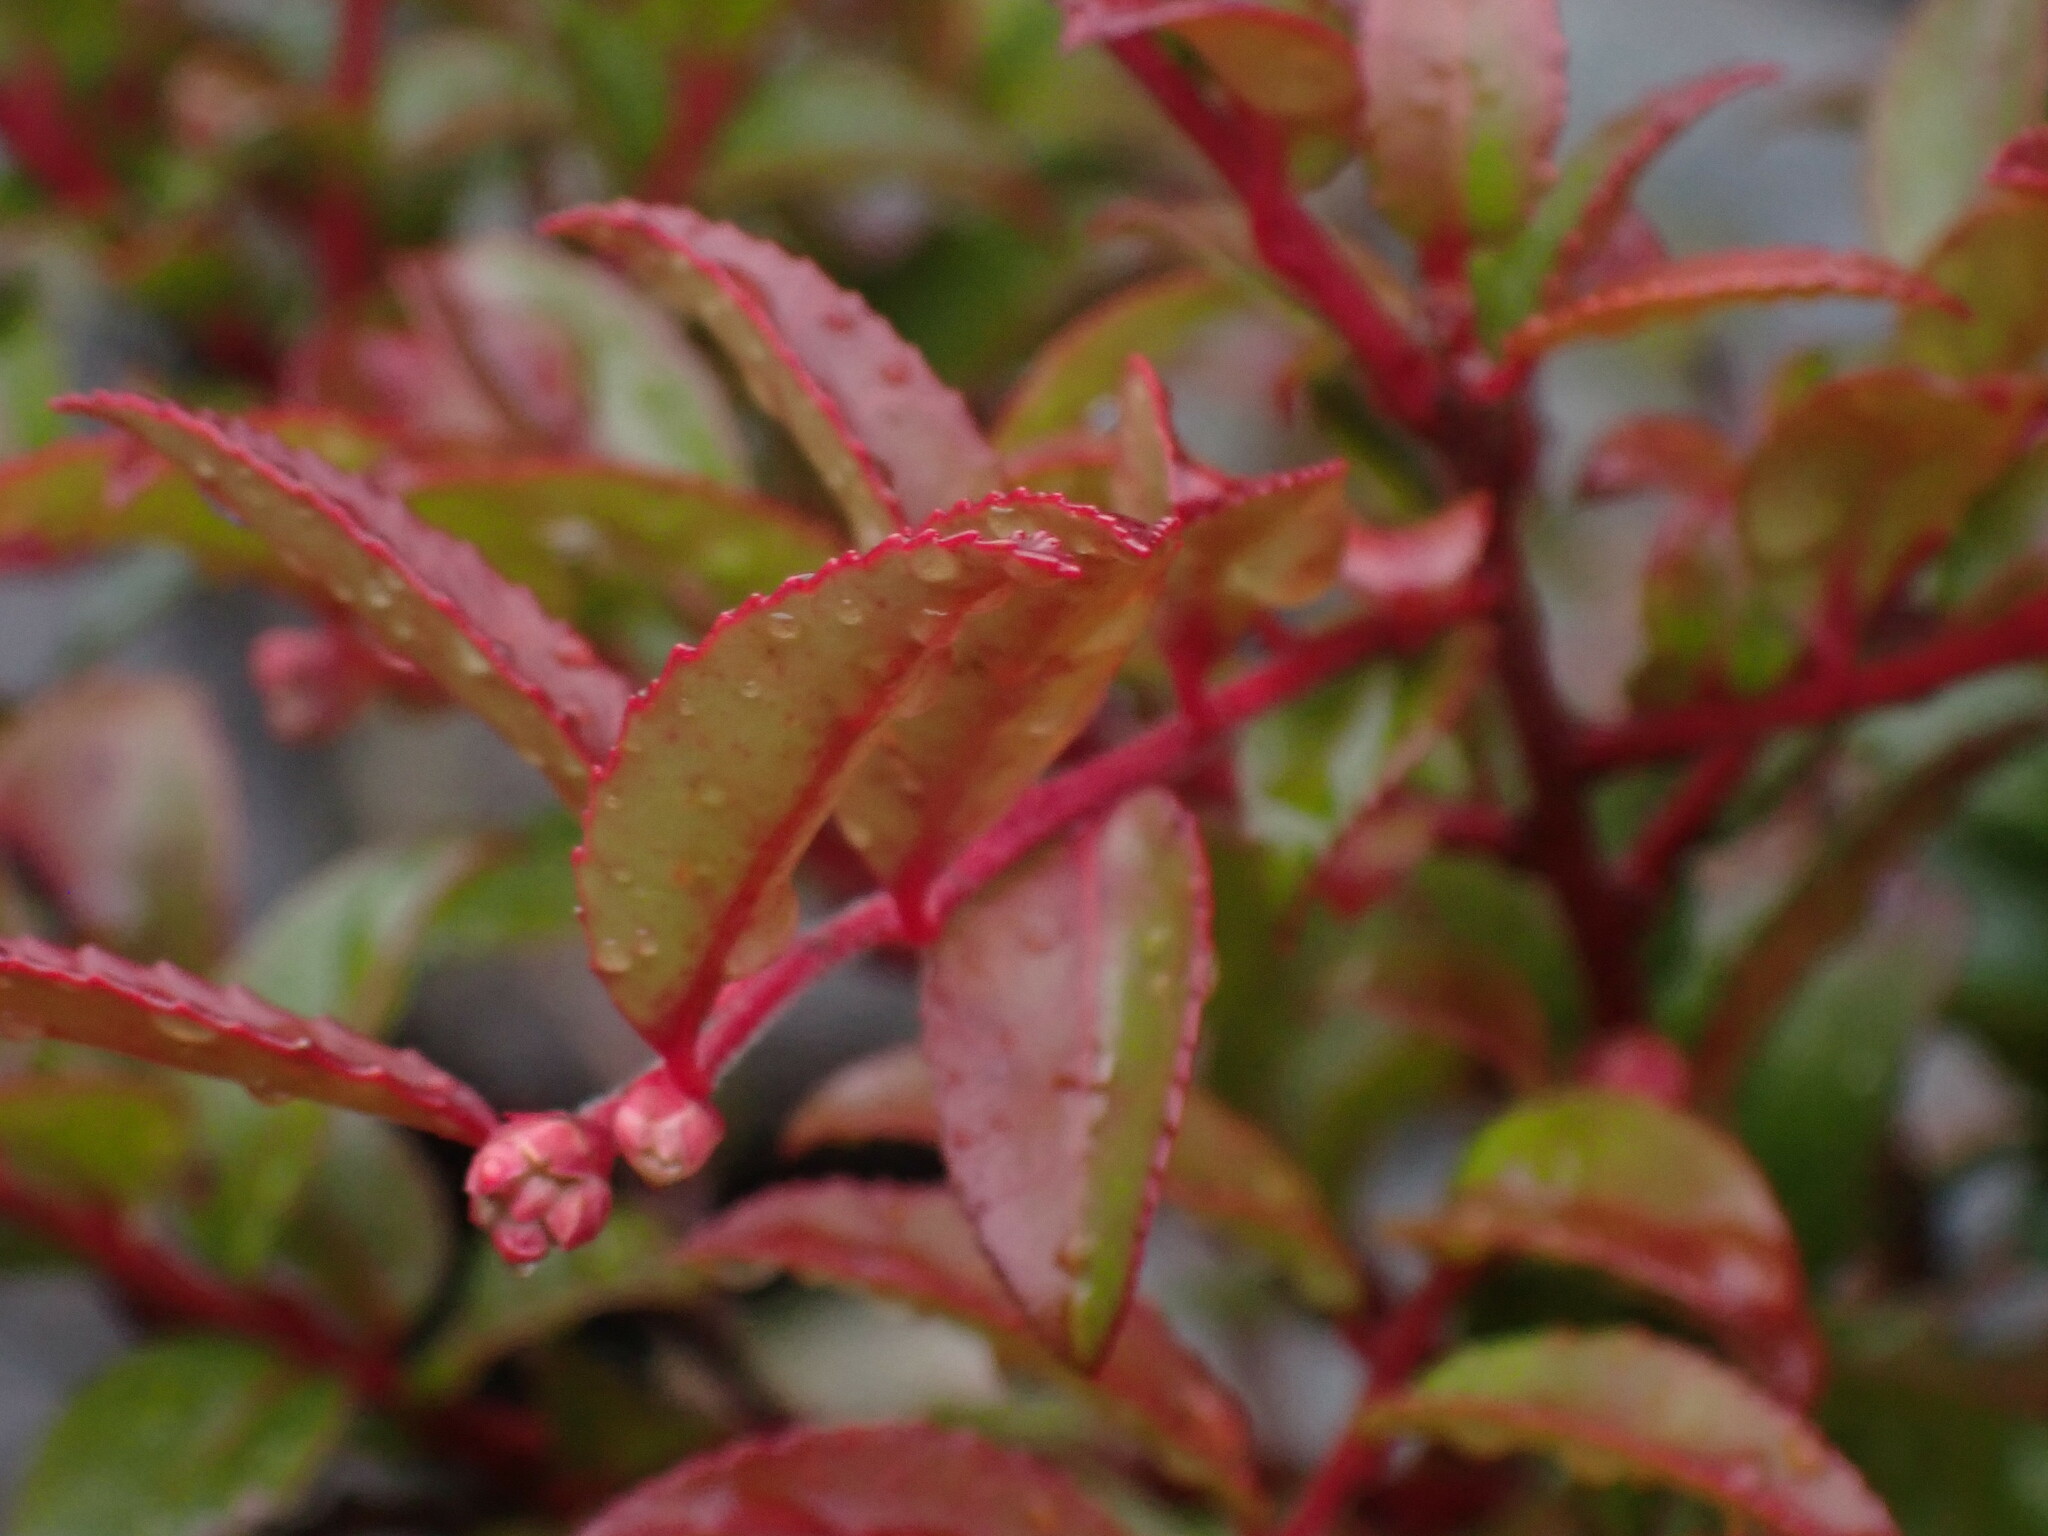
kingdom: Plantae
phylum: Tracheophyta
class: Magnoliopsida
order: Ericales
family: Ericaceae
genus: Vaccinium
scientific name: Vaccinium ovatum
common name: California-huckleberry
